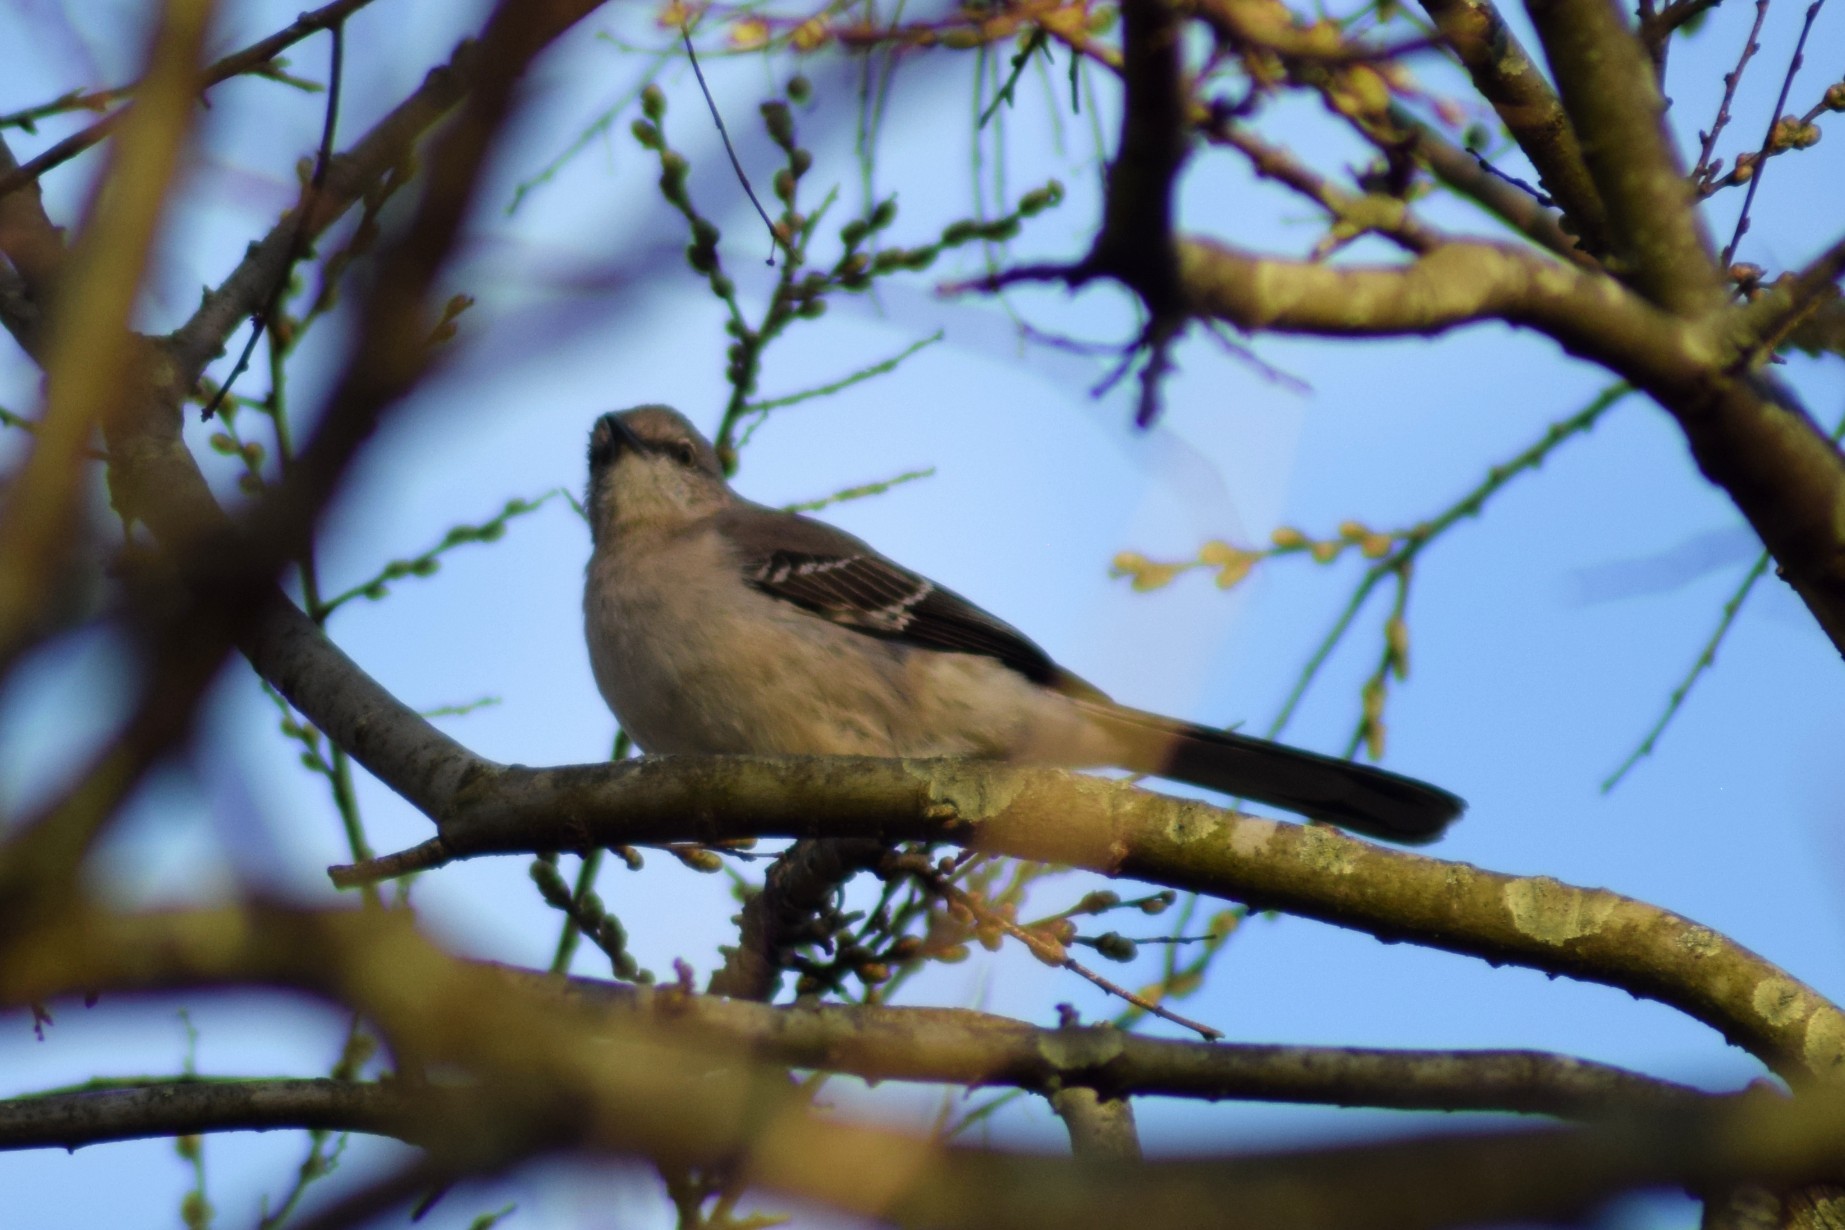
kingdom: Animalia
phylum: Chordata
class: Aves
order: Passeriformes
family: Mimidae
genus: Mimus
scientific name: Mimus polyglottos
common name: Northern mockingbird
